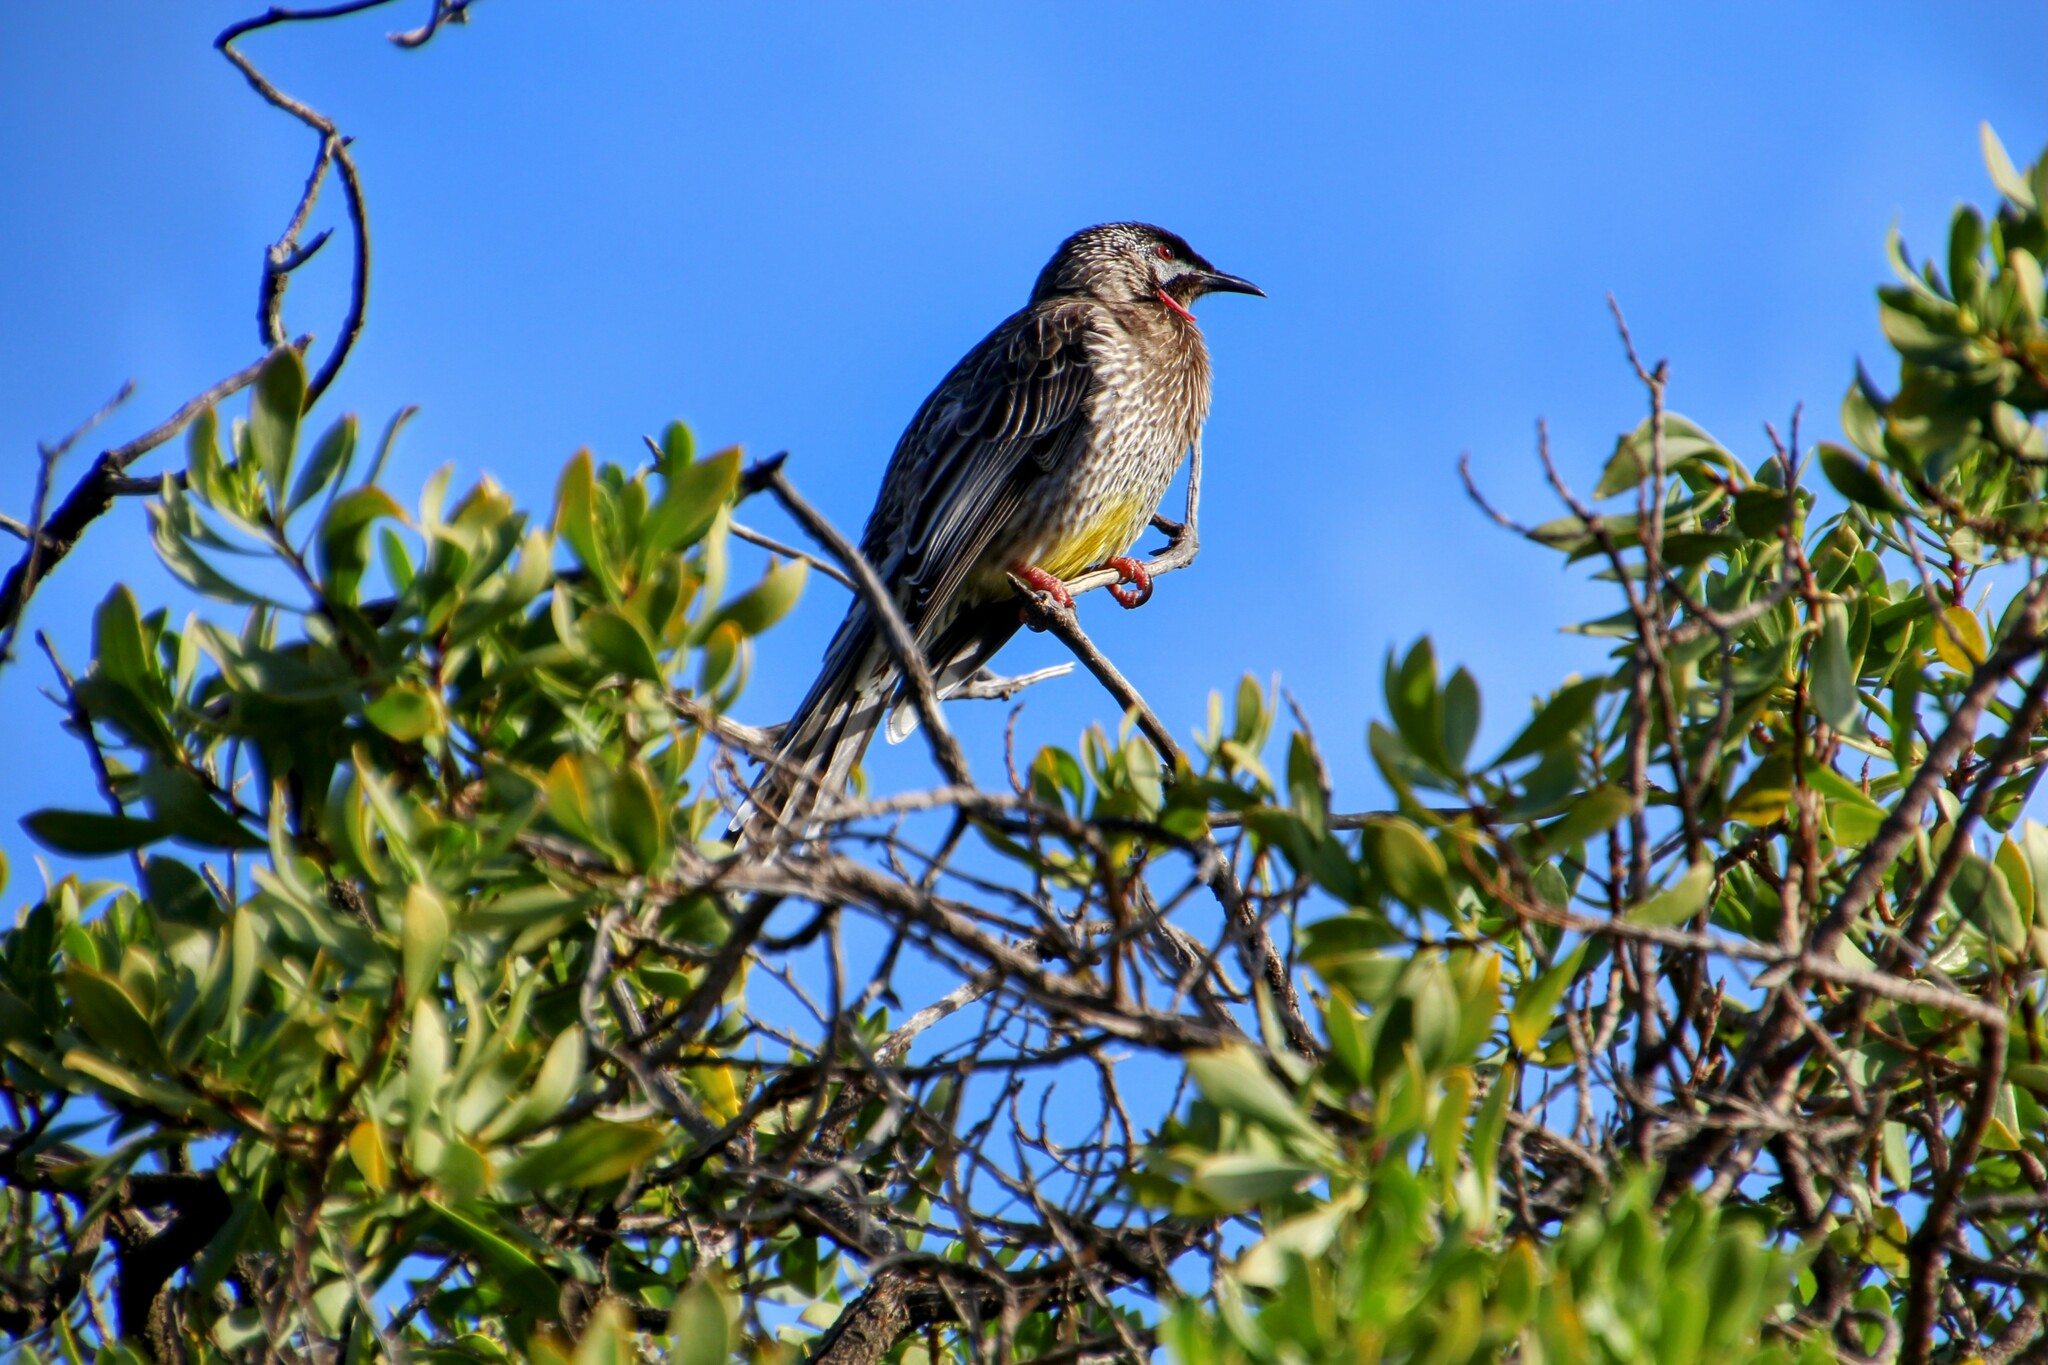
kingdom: Animalia
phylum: Chordata
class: Aves
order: Passeriformes
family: Meliphagidae
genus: Anthochaera
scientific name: Anthochaera carunculata
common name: Red wattlebird
